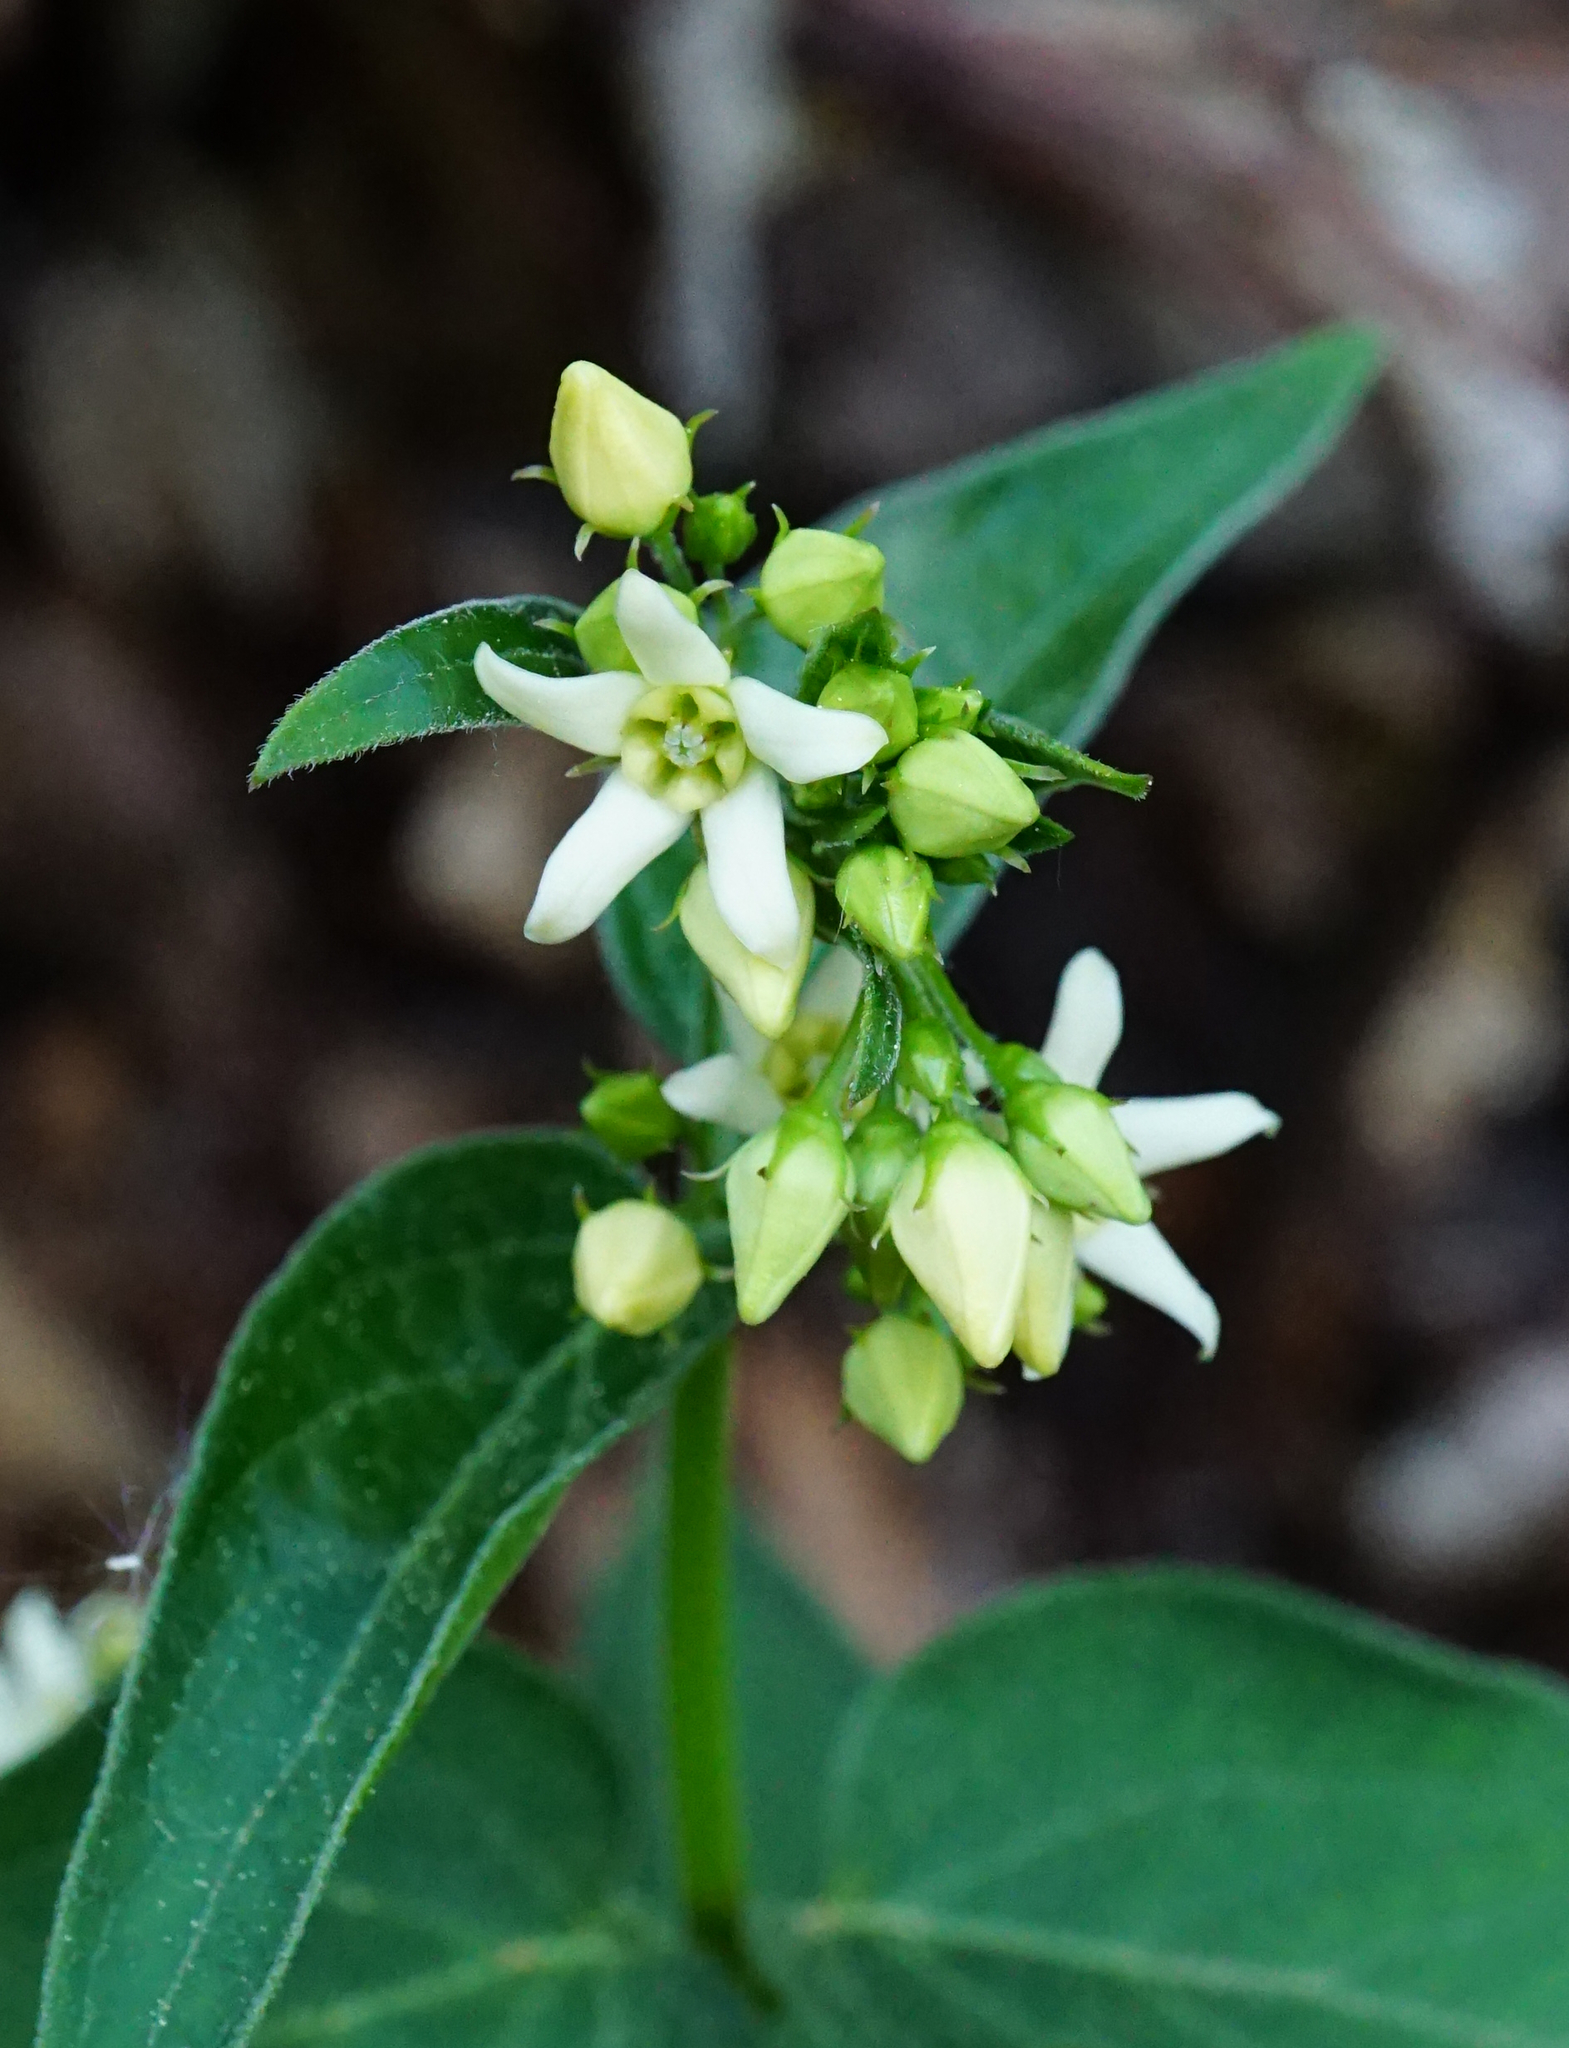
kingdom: Plantae
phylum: Tracheophyta
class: Magnoliopsida
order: Gentianales
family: Apocynaceae
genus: Vincetoxicum
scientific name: Vincetoxicum hirundinaria
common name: White swallowwort
